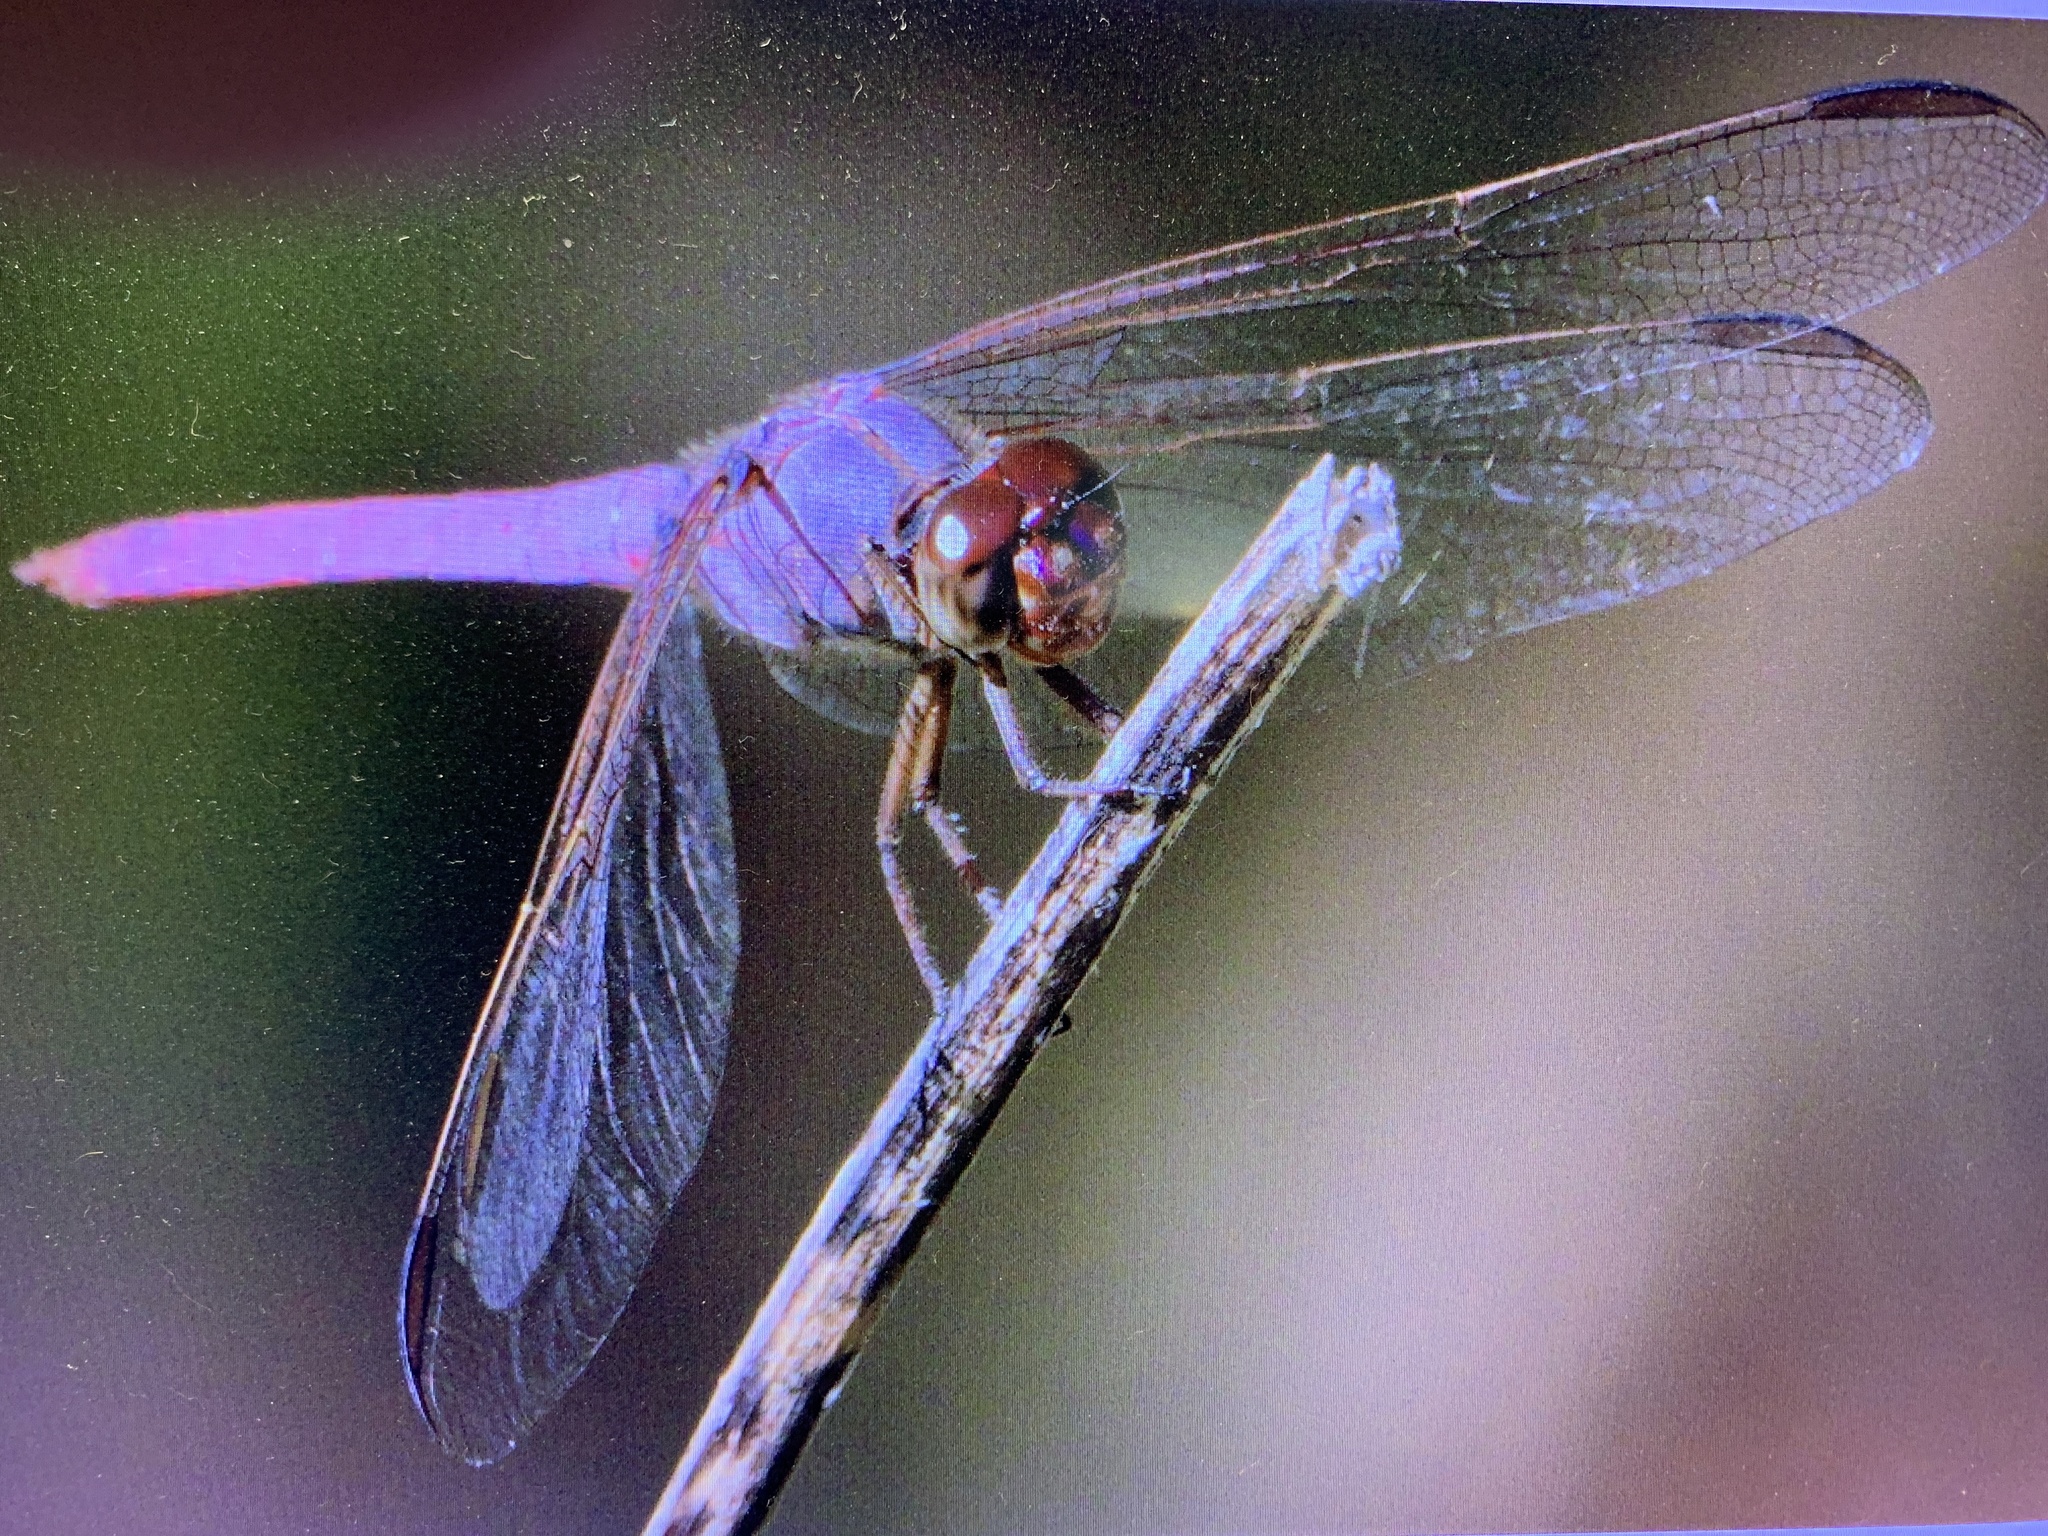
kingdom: Animalia
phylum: Arthropoda
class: Insecta
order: Odonata
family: Libellulidae
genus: Orthemis
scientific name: Orthemis ferruginea
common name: Roseate skimmer
